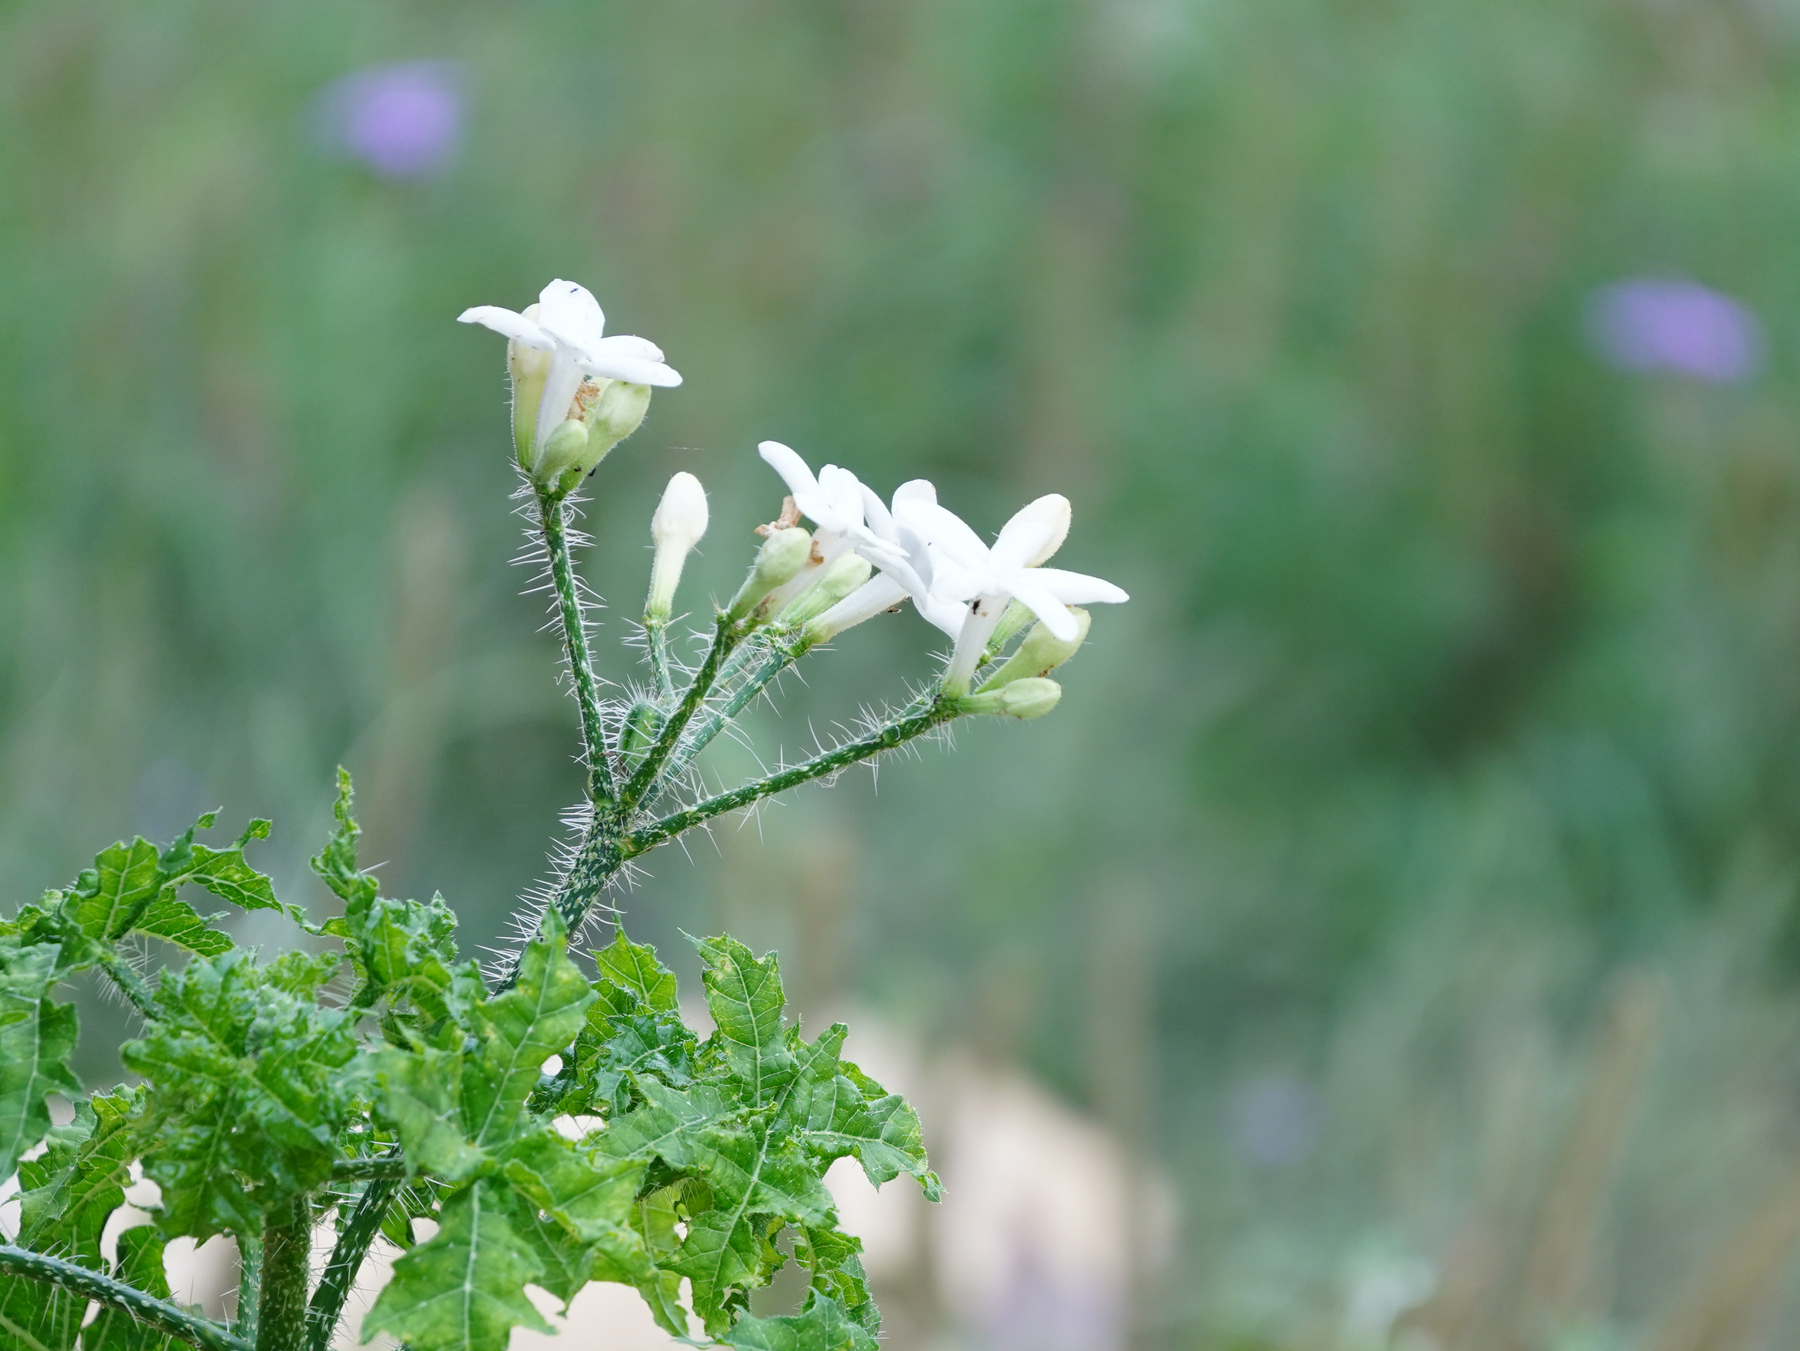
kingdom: Plantae
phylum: Tracheophyta
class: Magnoliopsida
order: Malpighiales
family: Euphorbiaceae
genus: Cnidoscolus
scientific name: Cnidoscolus texanus
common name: Texas bull-nettle
